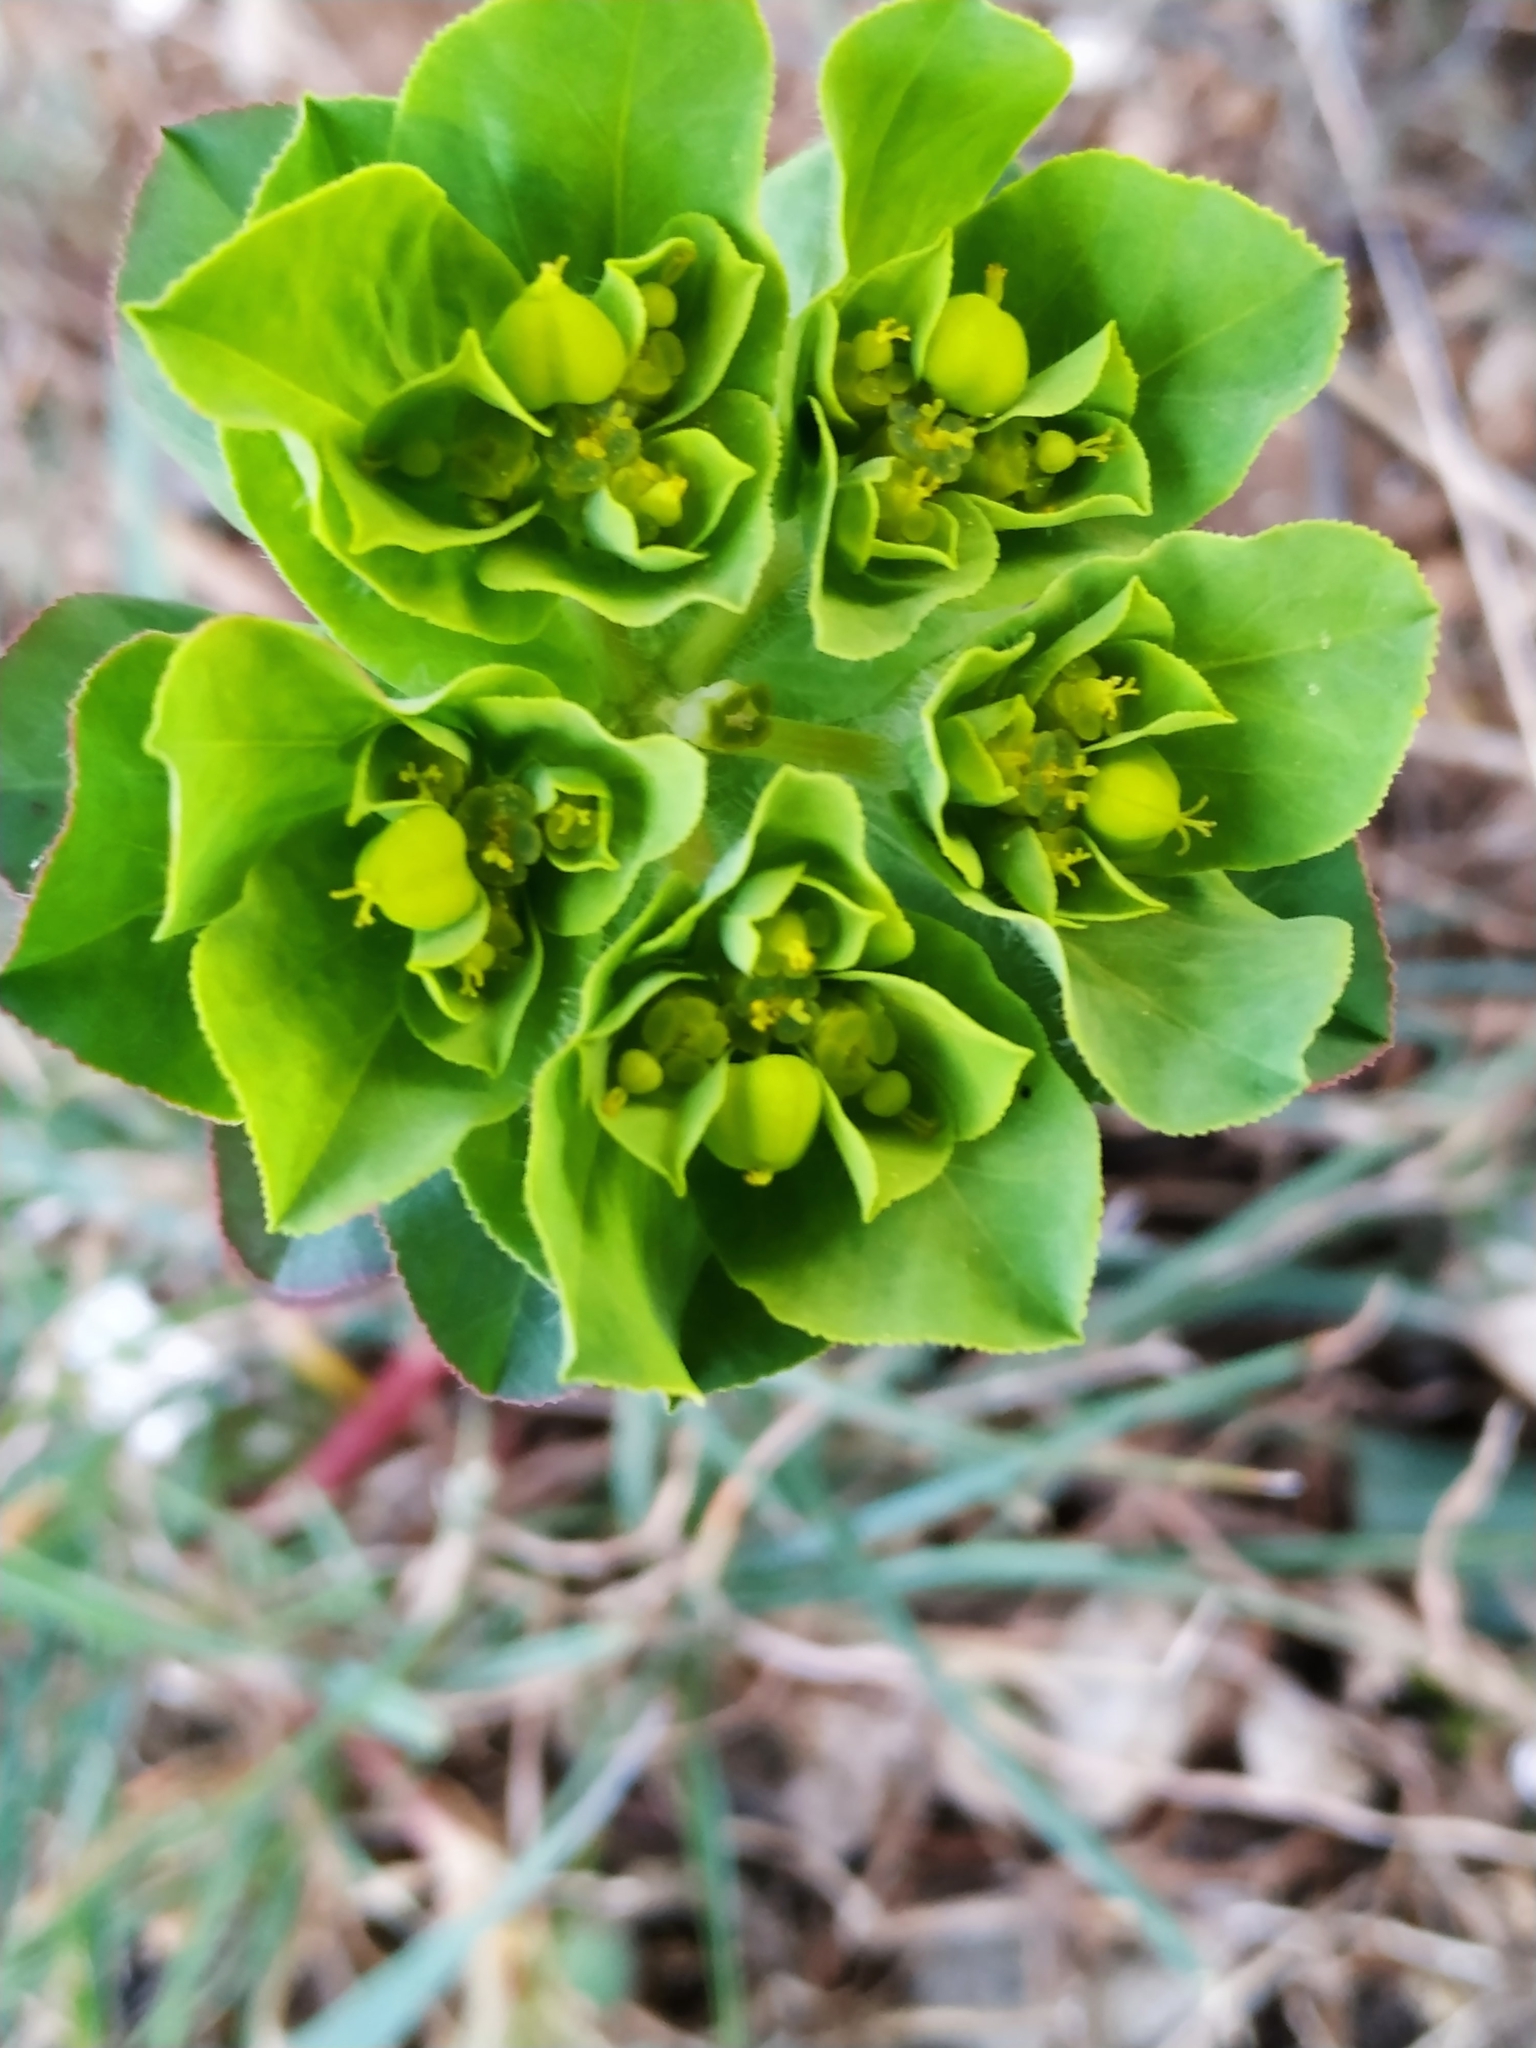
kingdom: Plantae
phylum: Tracheophyta
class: Magnoliopsida
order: Malpighiales
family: Euphorbiaceae
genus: Euphorbia
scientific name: Euphorbia helioscopia
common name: Sun spurge
